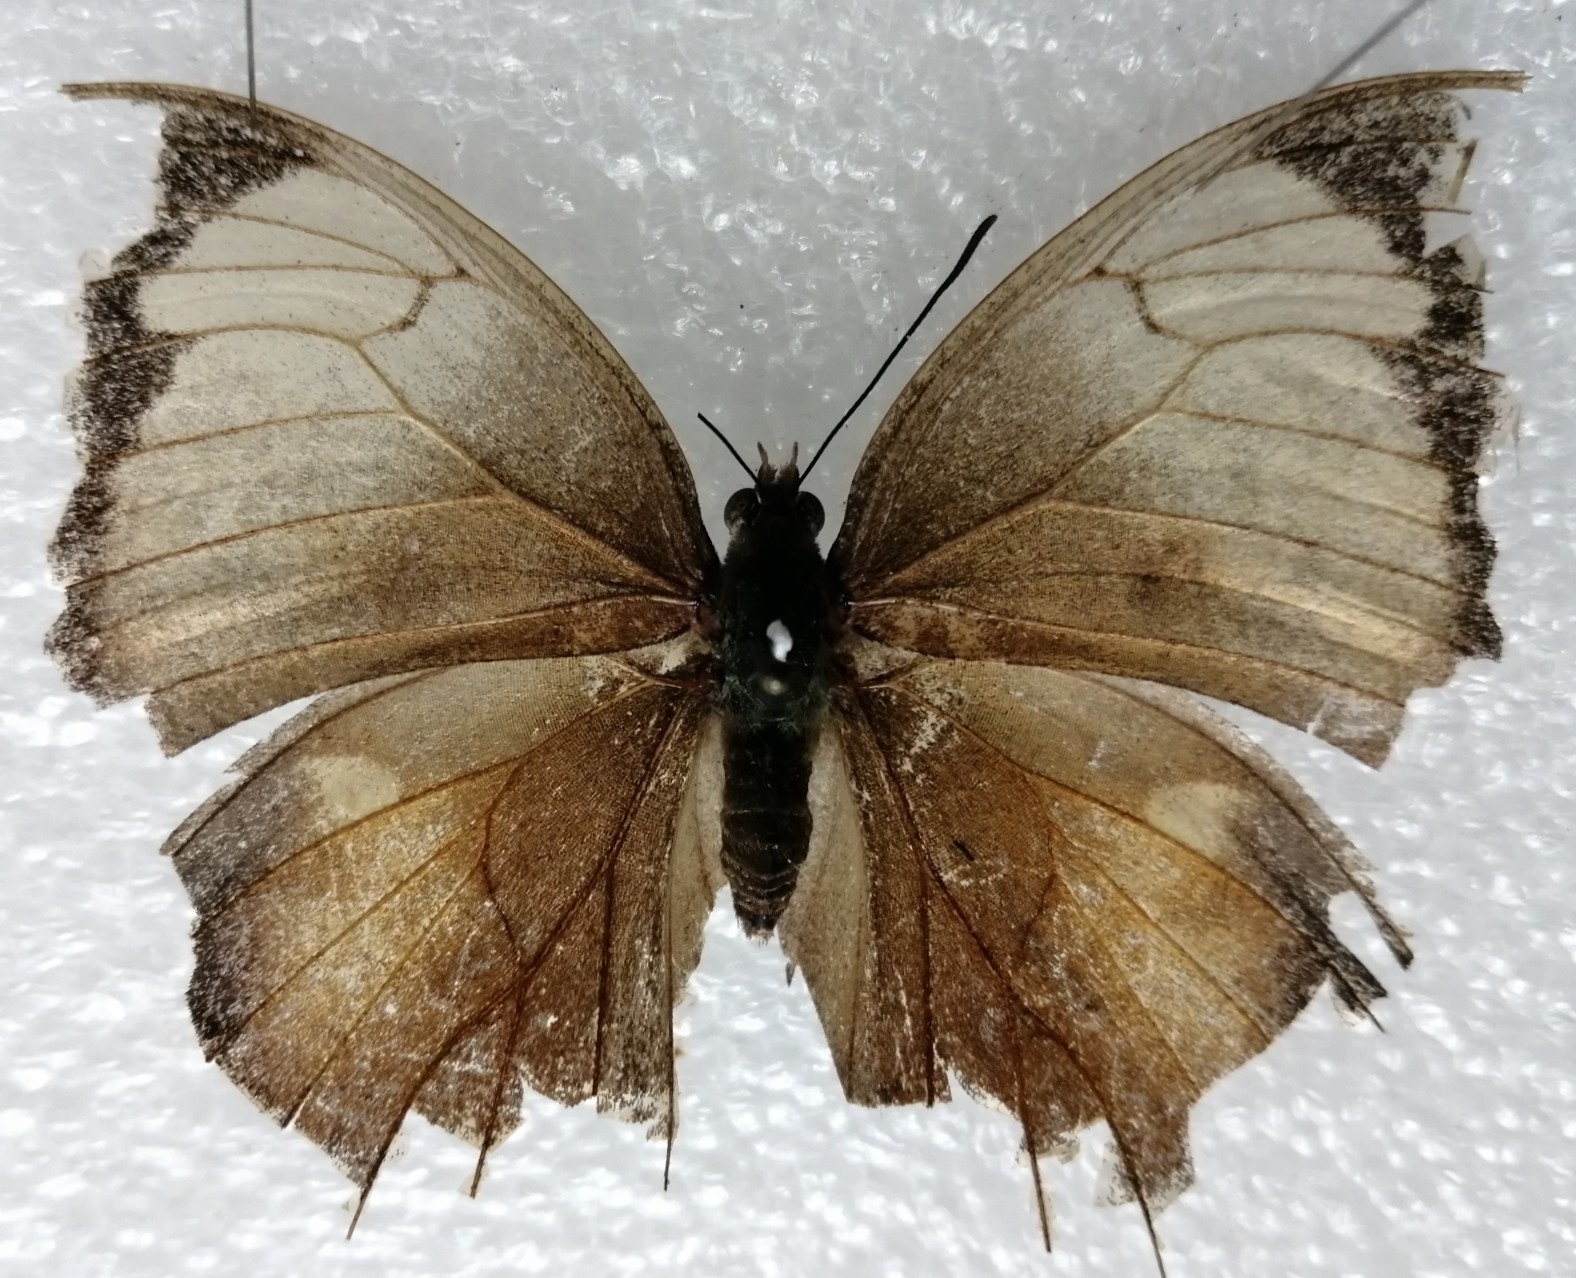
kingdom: Animalia
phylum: Arthropoda
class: Insecta
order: Lepidoptera
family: Nymphalidae
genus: Consul
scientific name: Consul electra
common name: Pearly leafwing
